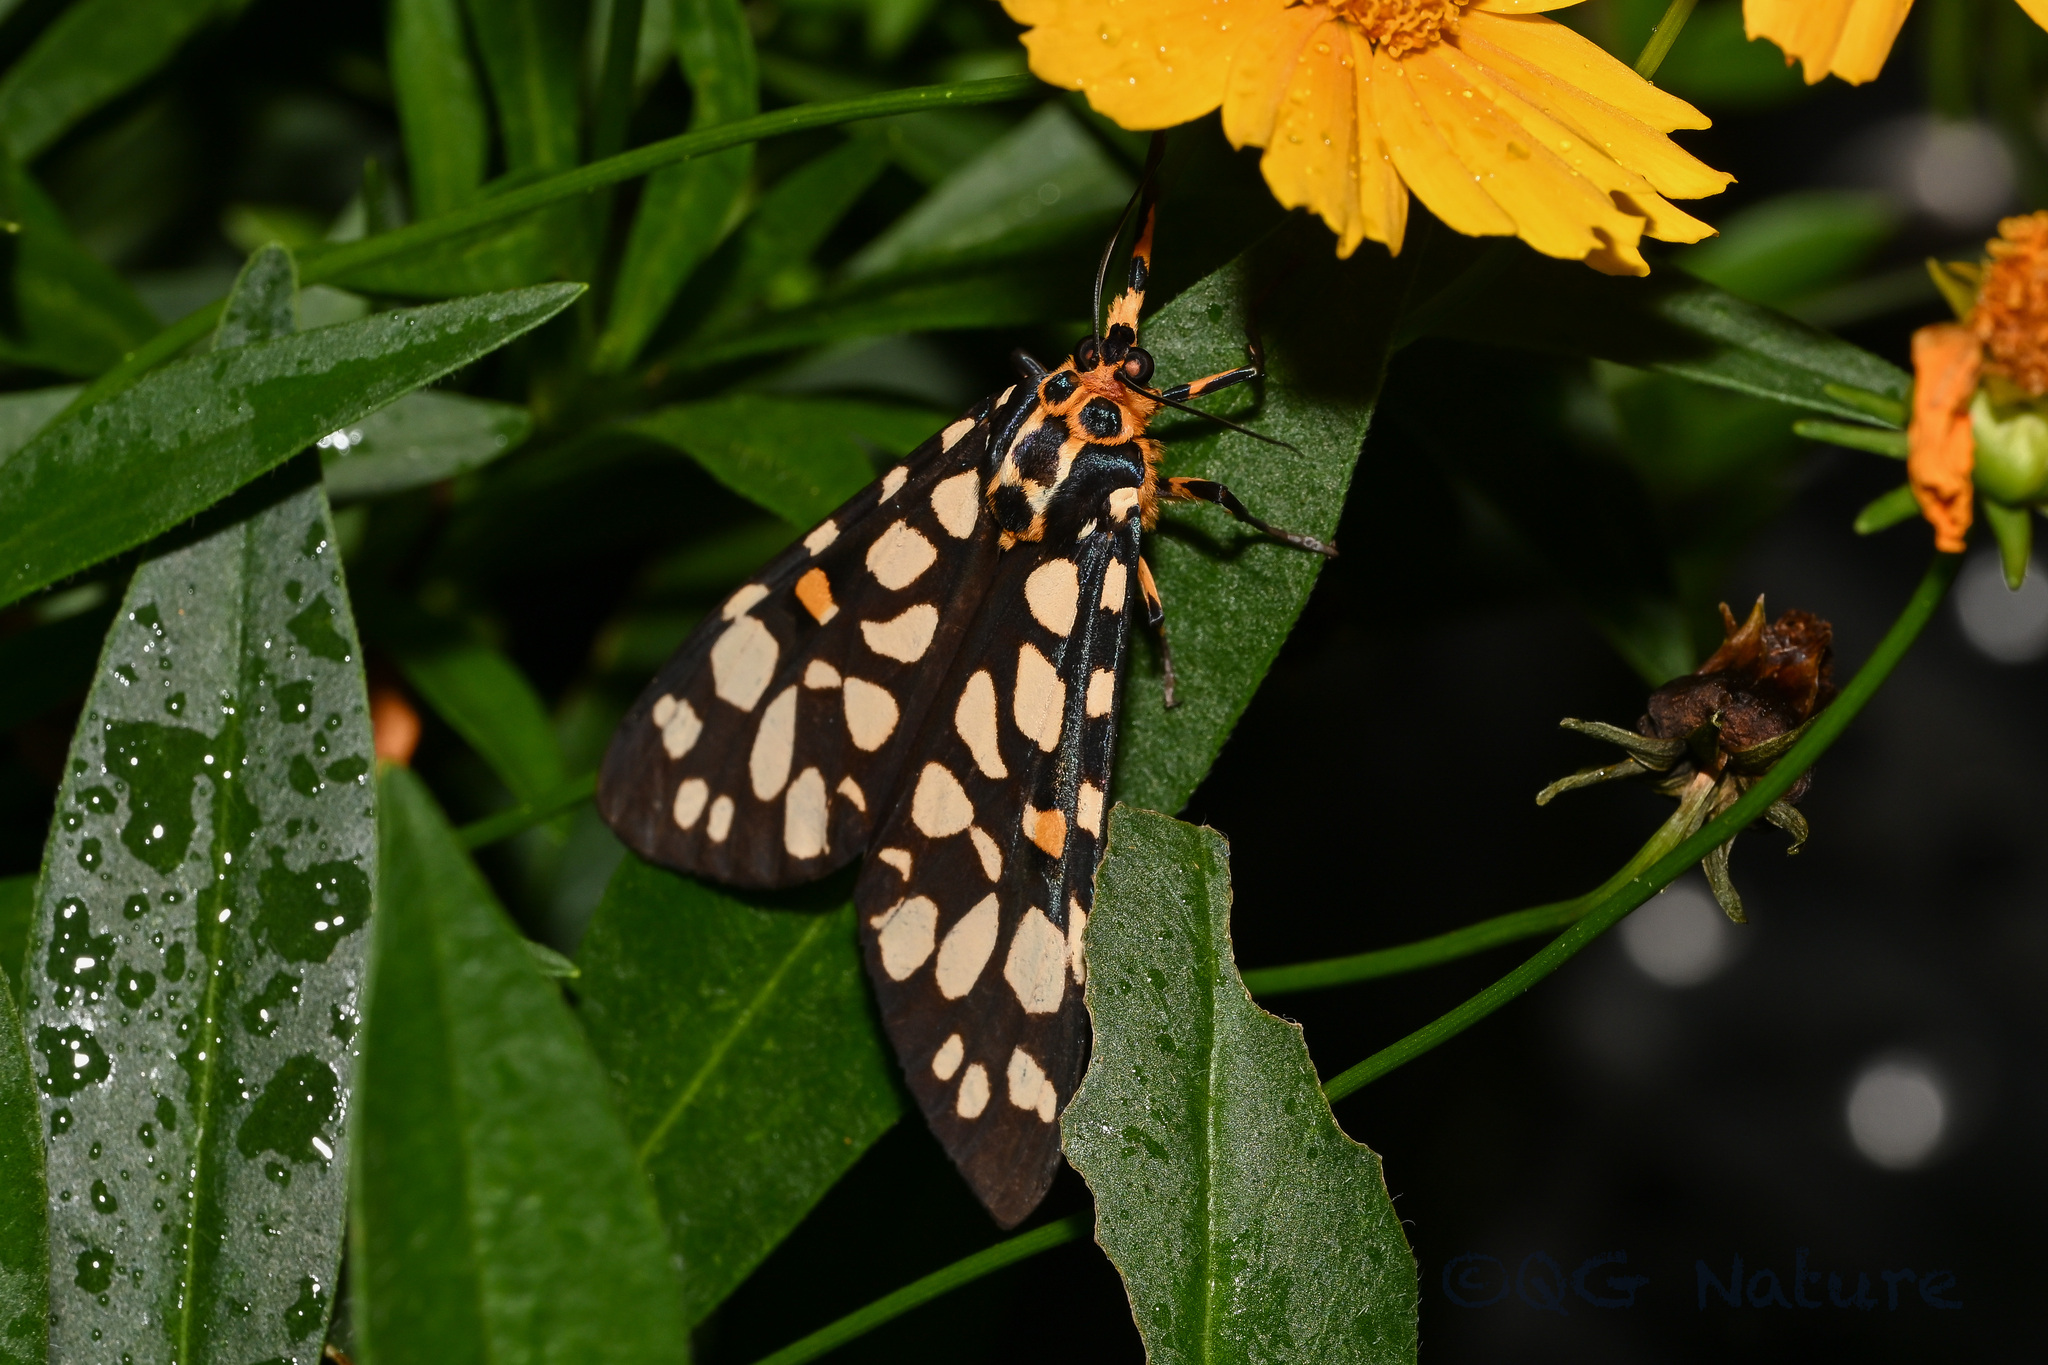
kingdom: Animalia
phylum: Arthropoda
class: Insecta
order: Lepidoptera
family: Erebidae
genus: Aglaomorpha
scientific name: Aglaomorpha histrio
